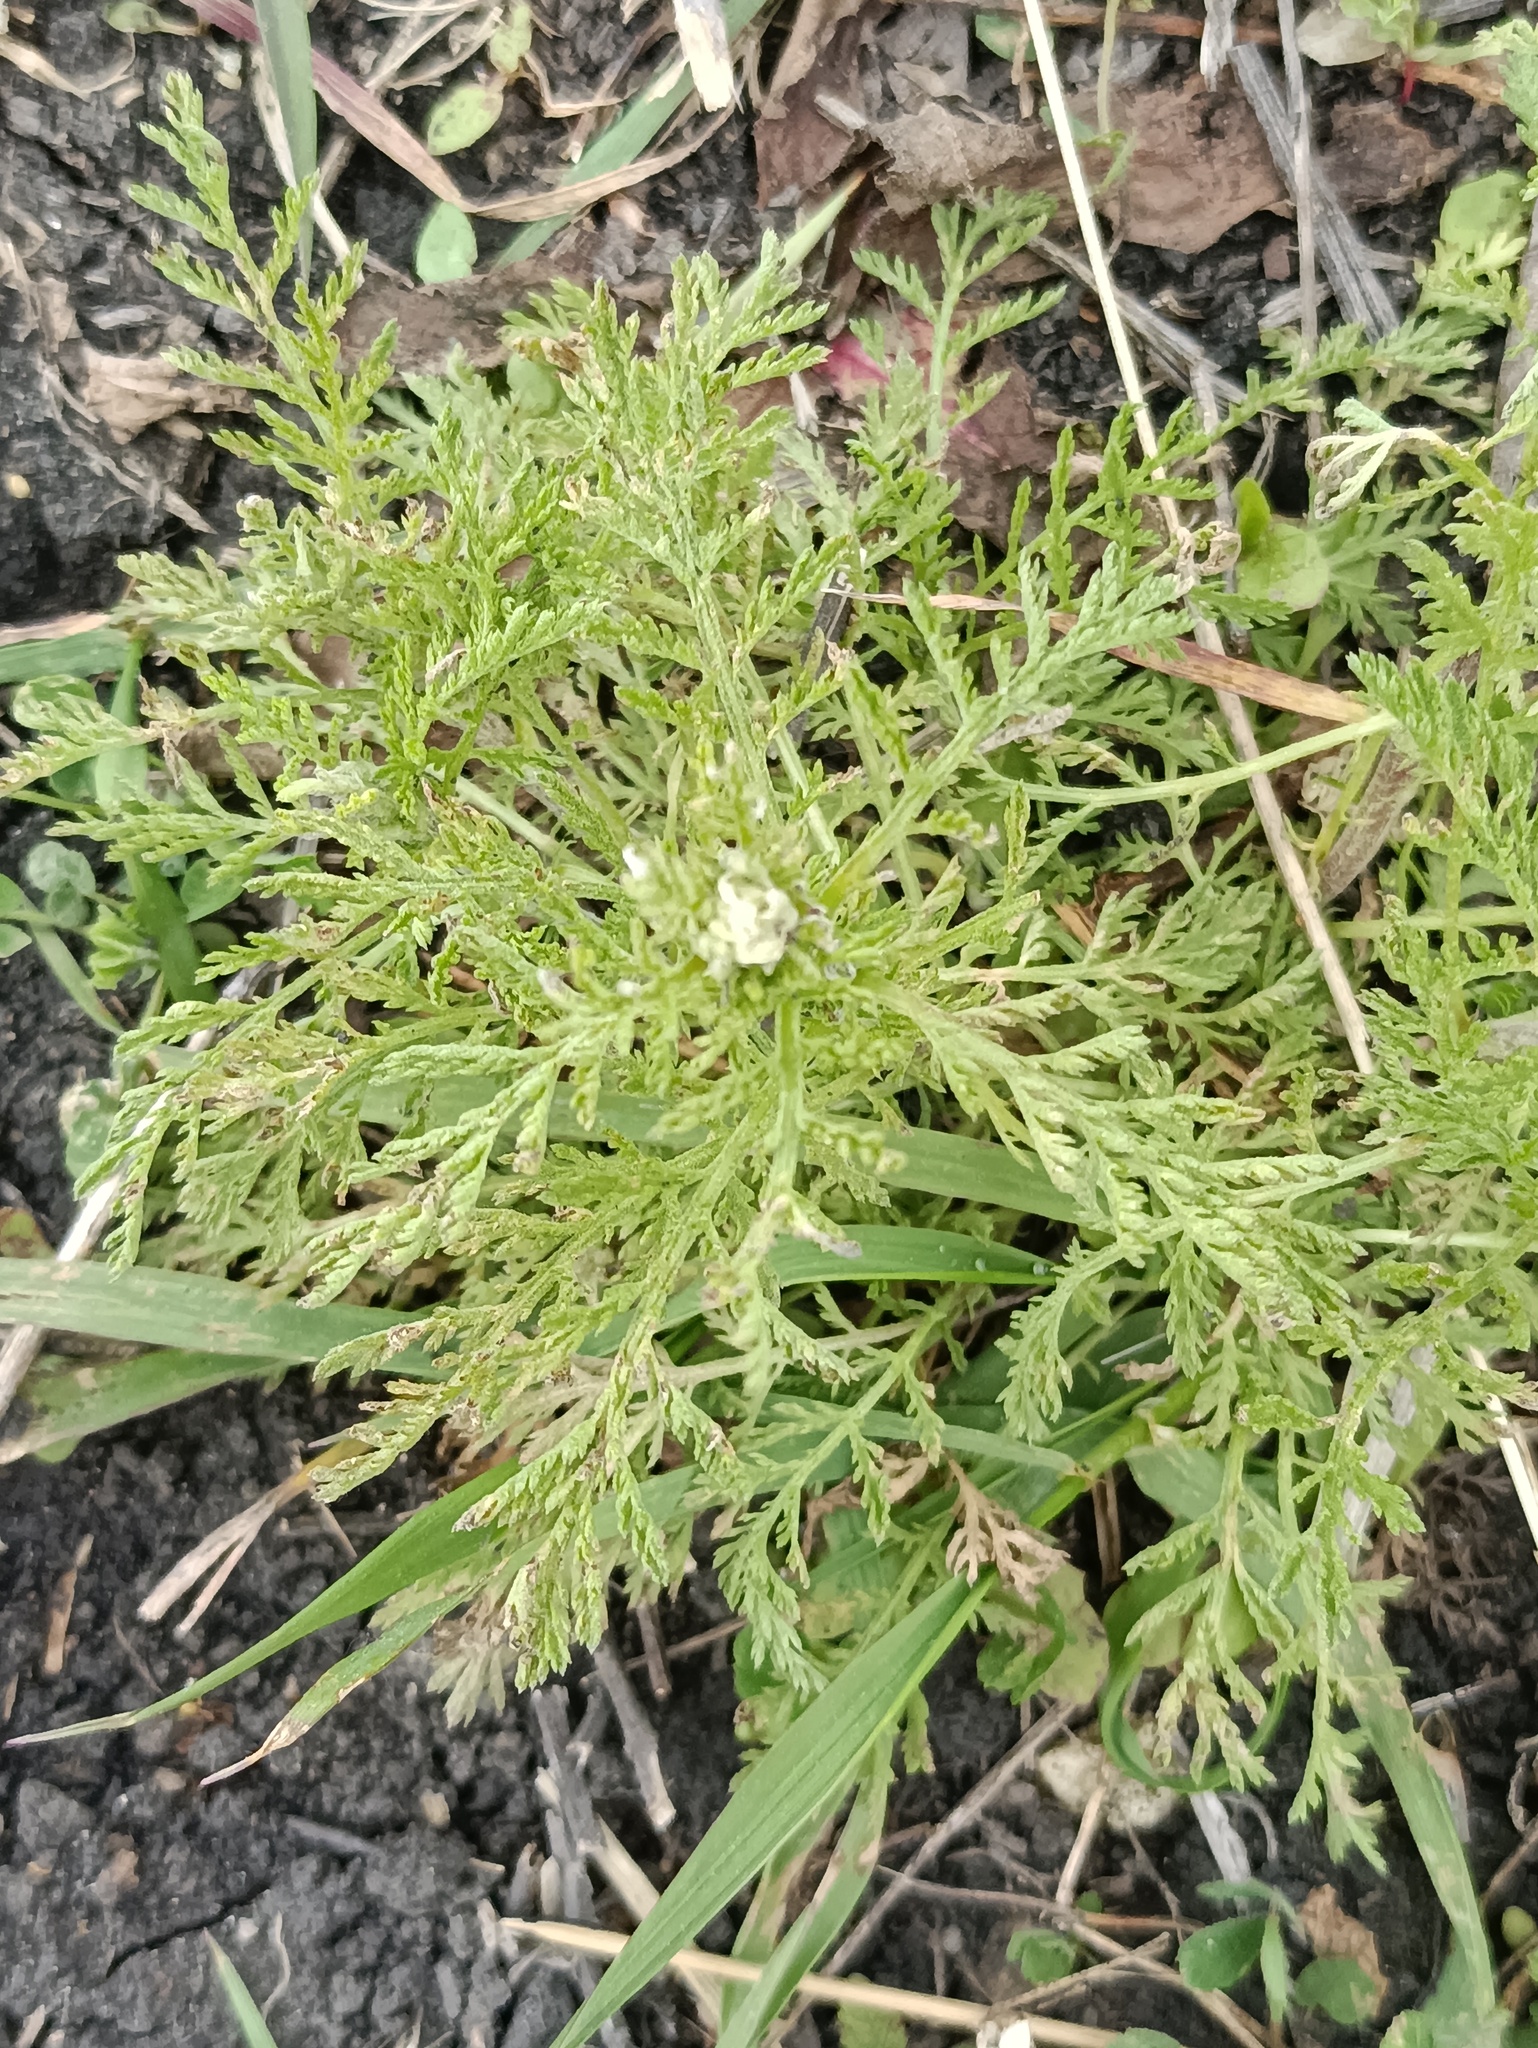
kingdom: Plantae
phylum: Tracheophyta
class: Magnoliopsida
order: Asterales
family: Asteraceae
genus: Achillea
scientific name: Achillea nobilis
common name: Noble yarrow
